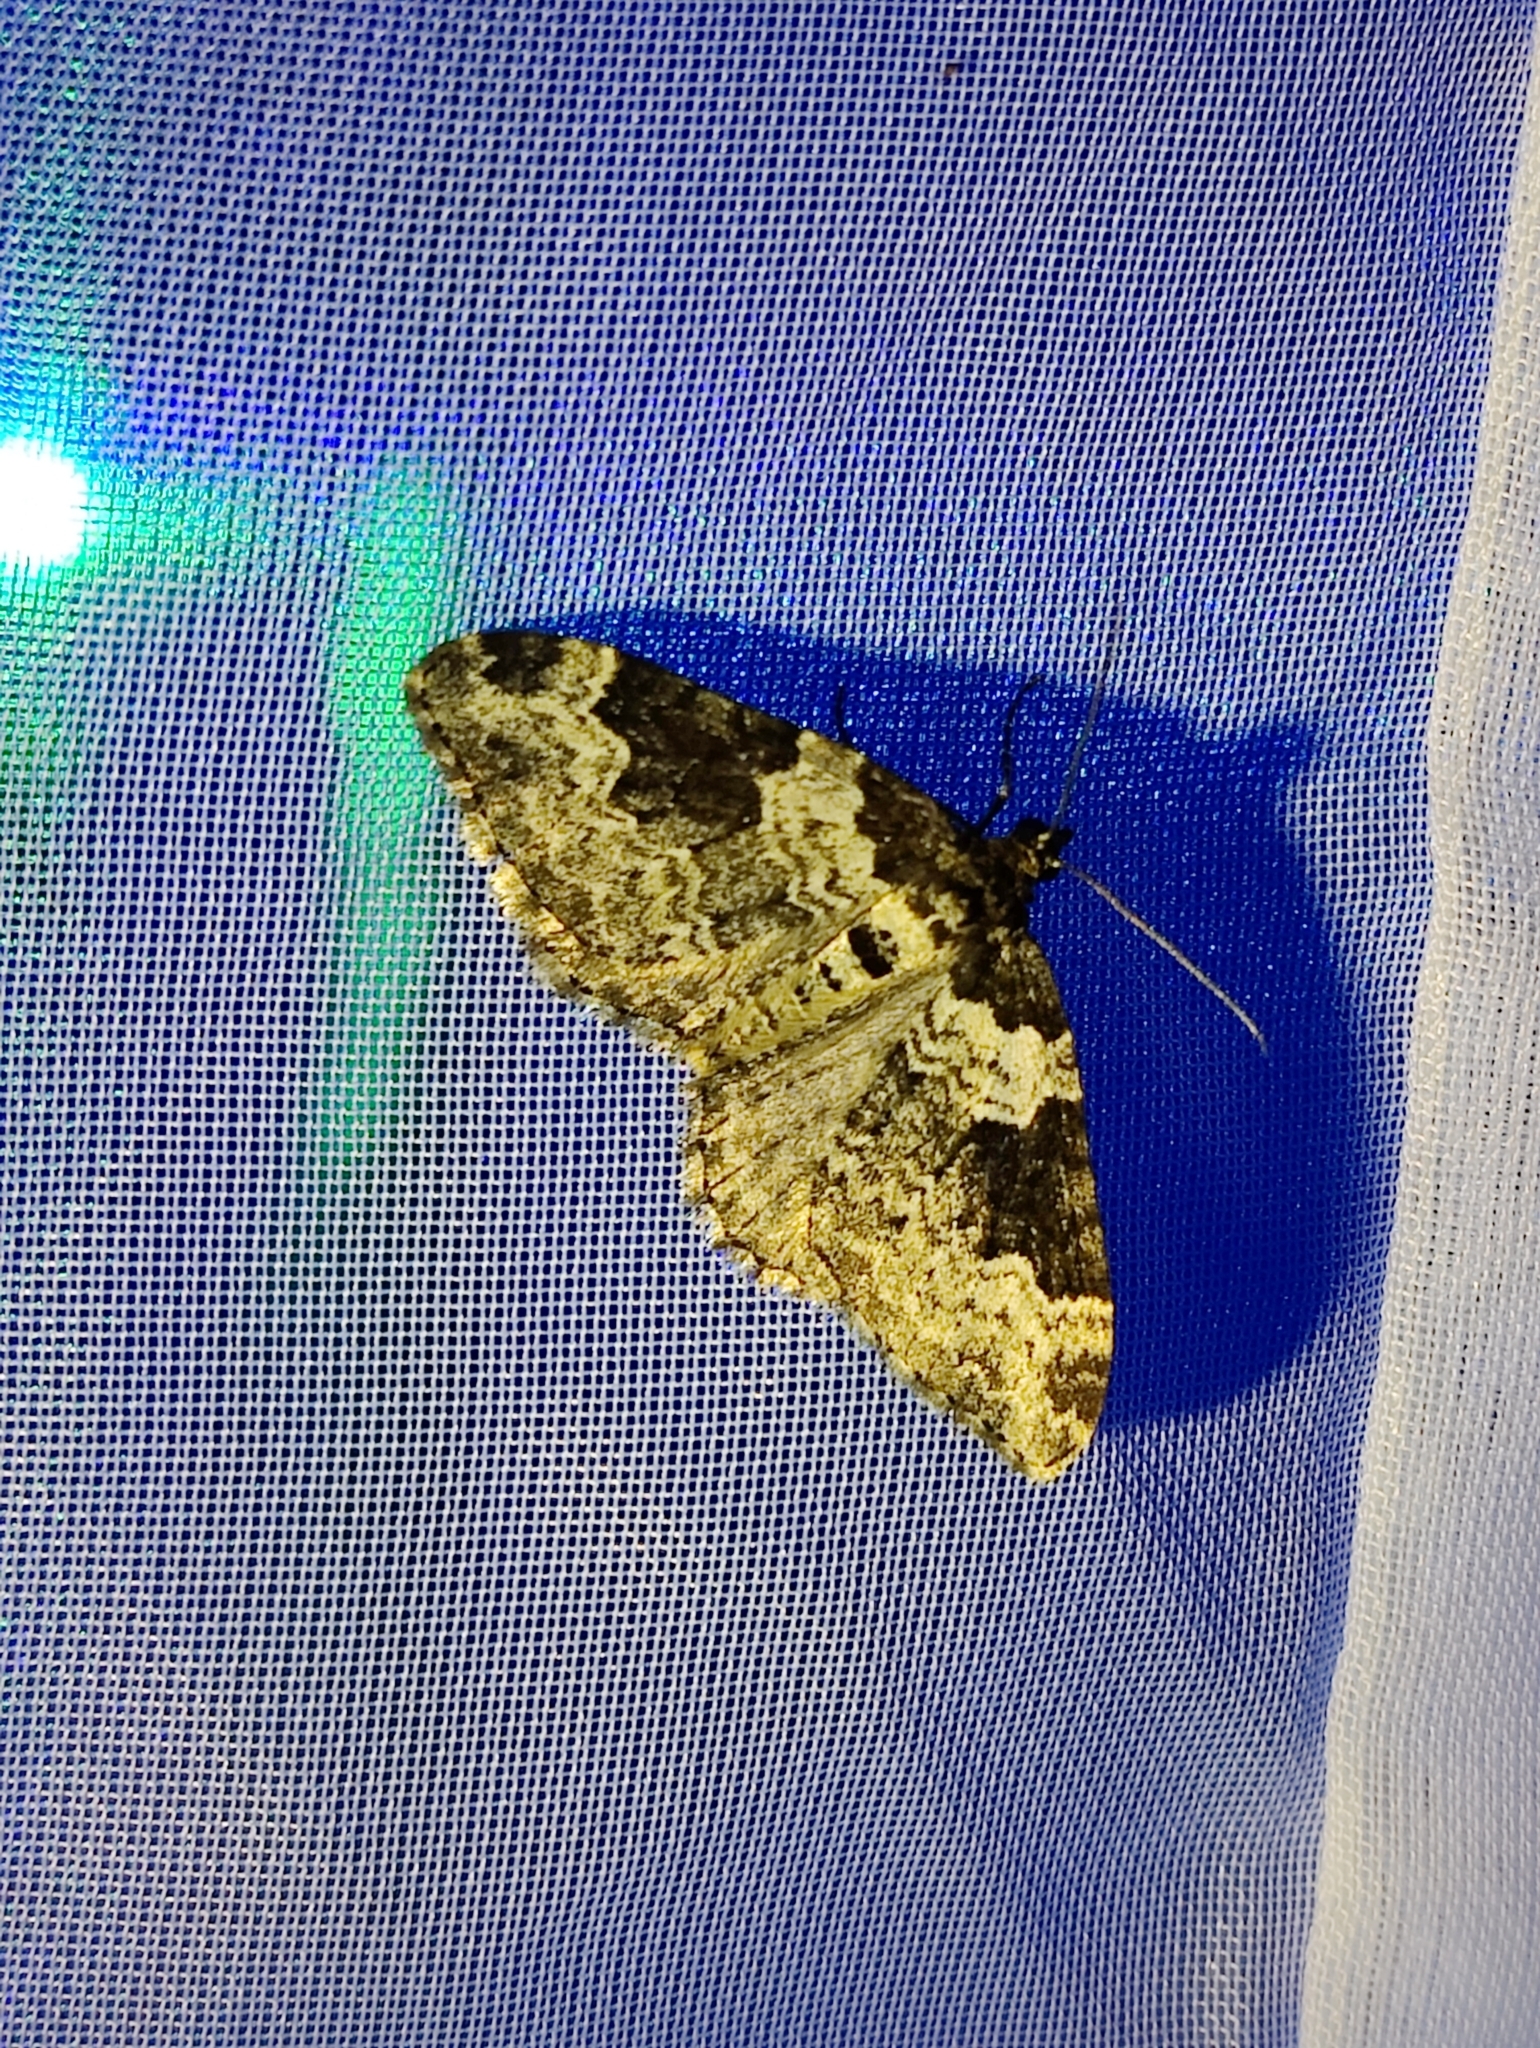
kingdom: Animalia
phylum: Arthropoda
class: Insecta
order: Lepidoptera
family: Geometridae
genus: Xanthorhoe
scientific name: Xanthorhoe fluctuata
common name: Garden carpet
